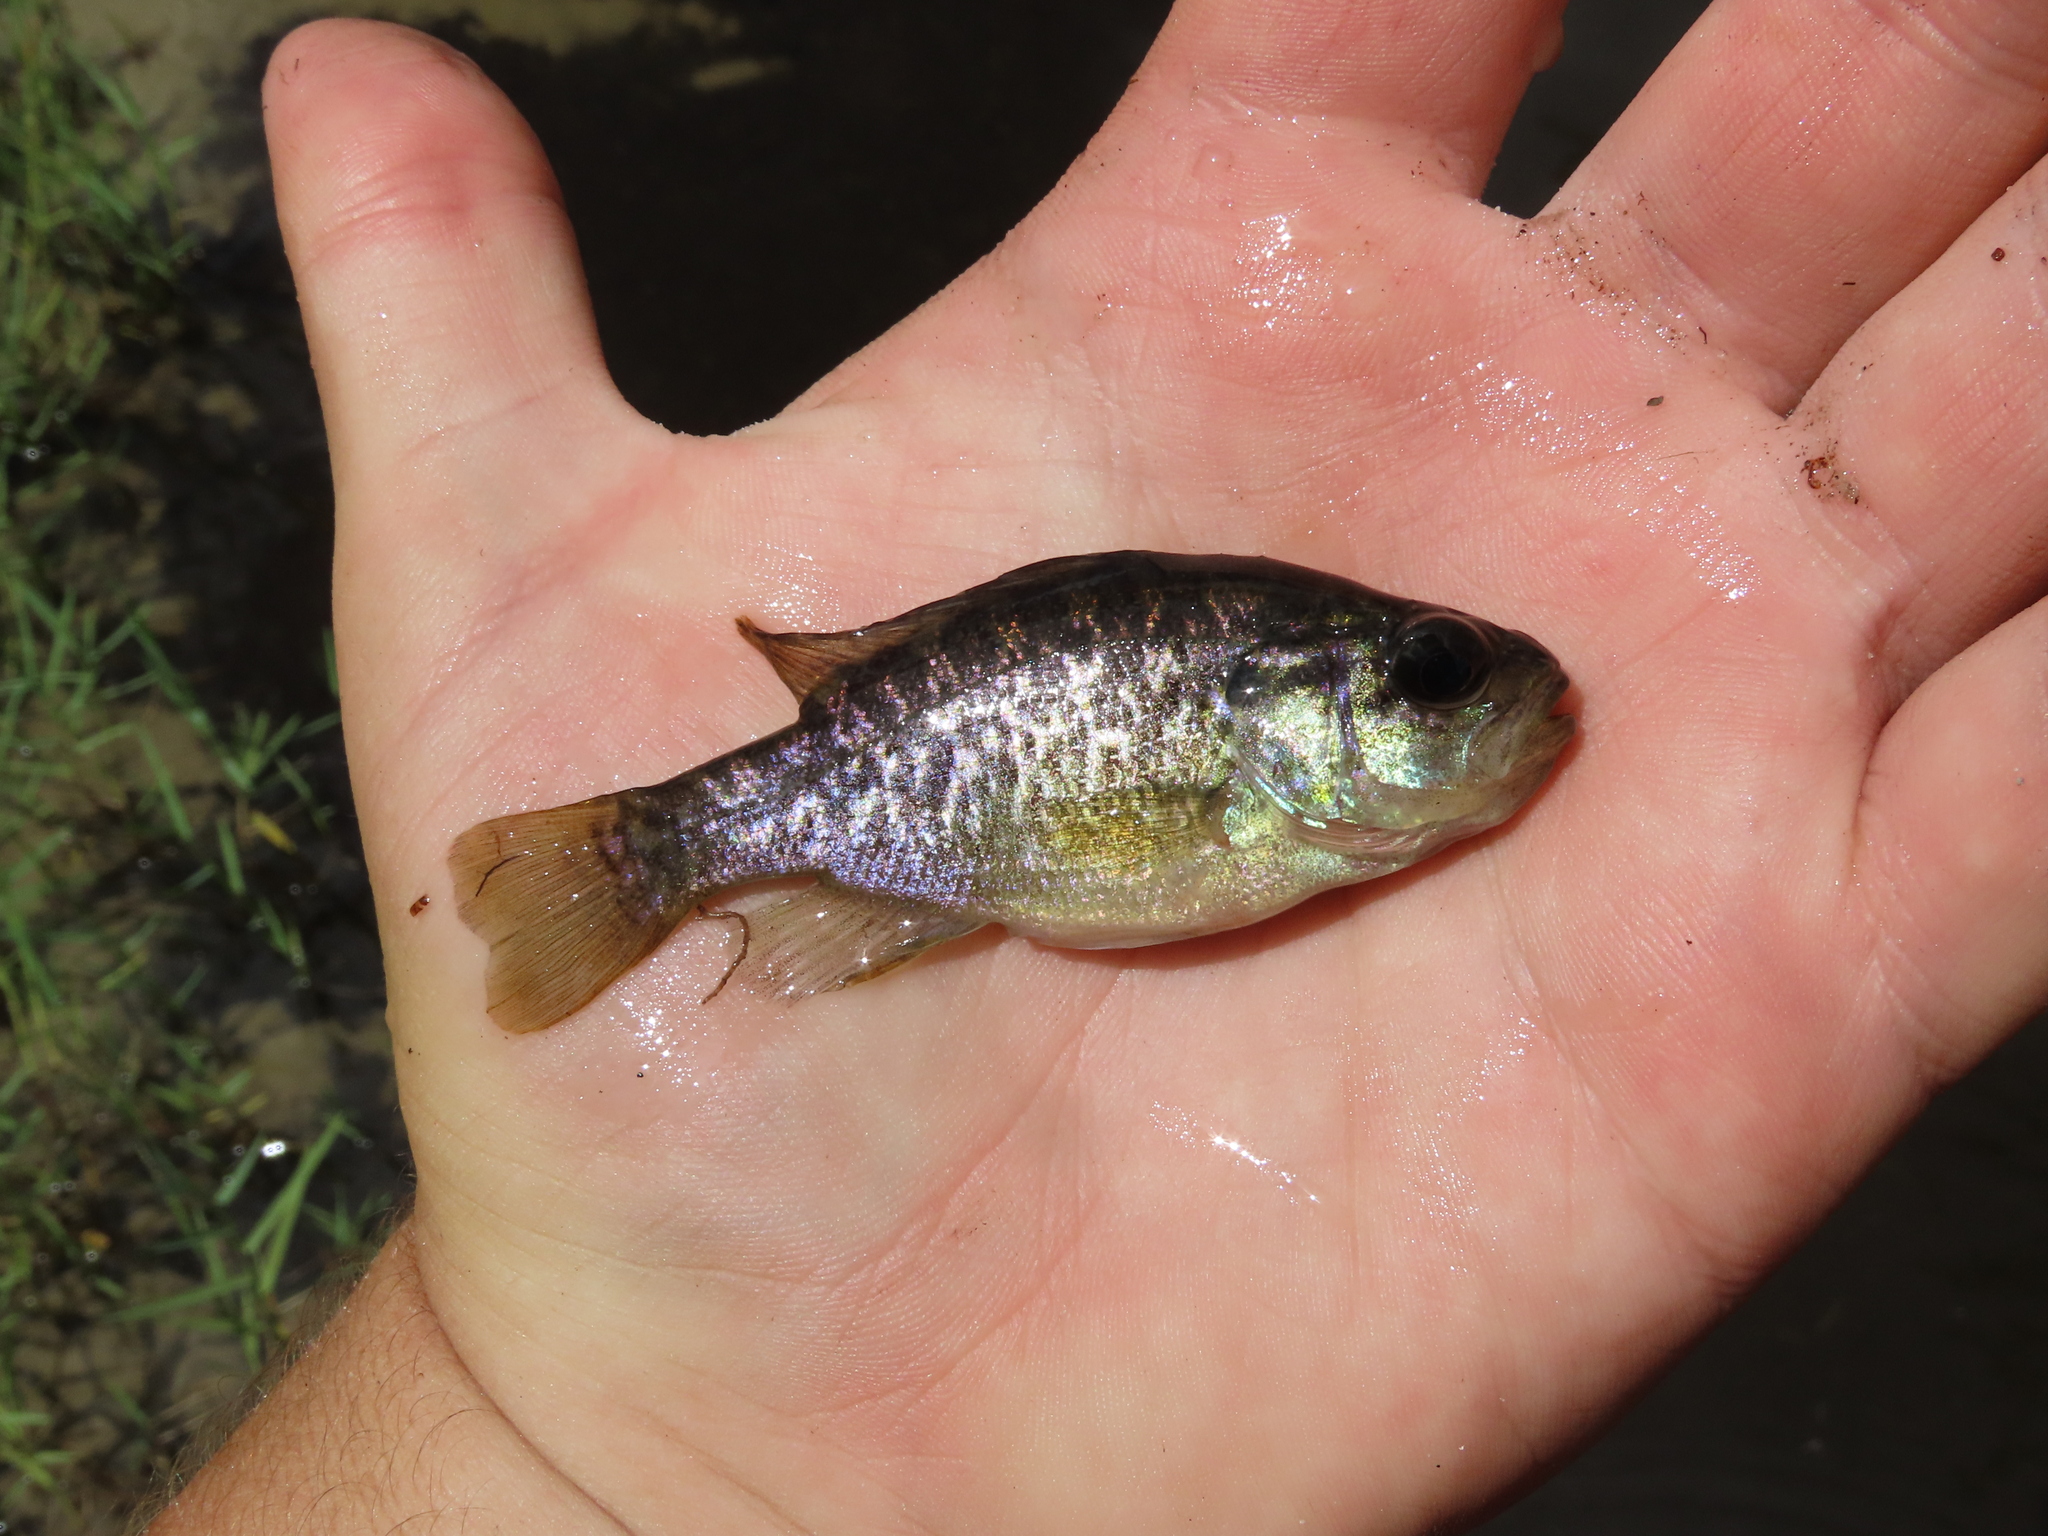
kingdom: Animalia
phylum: Chordata
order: Perciformes
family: Centrarchidae
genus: Lepomis
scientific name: Lepomis gulosus
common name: Warmouth
